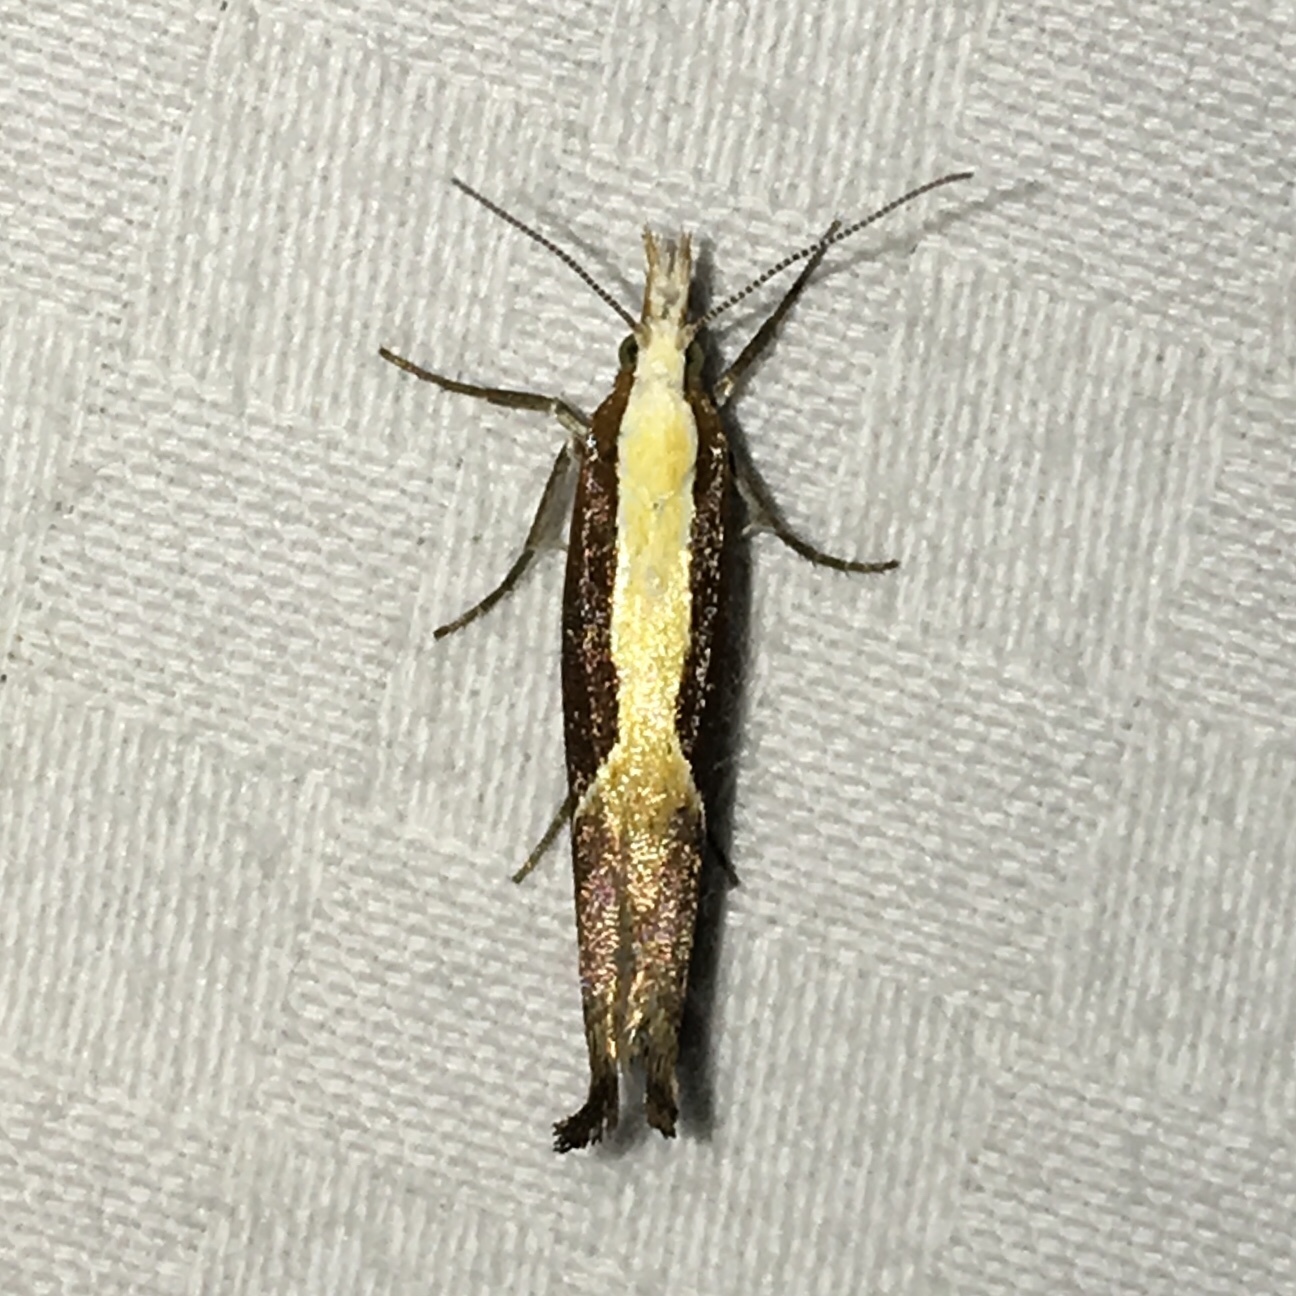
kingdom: Animalia
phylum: Arthropoda
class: Insecta
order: Lepidoptera
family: Ypsolophidae
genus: Ypsolopha
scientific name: Ypsolopha dentella
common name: Honeysuckle moth
